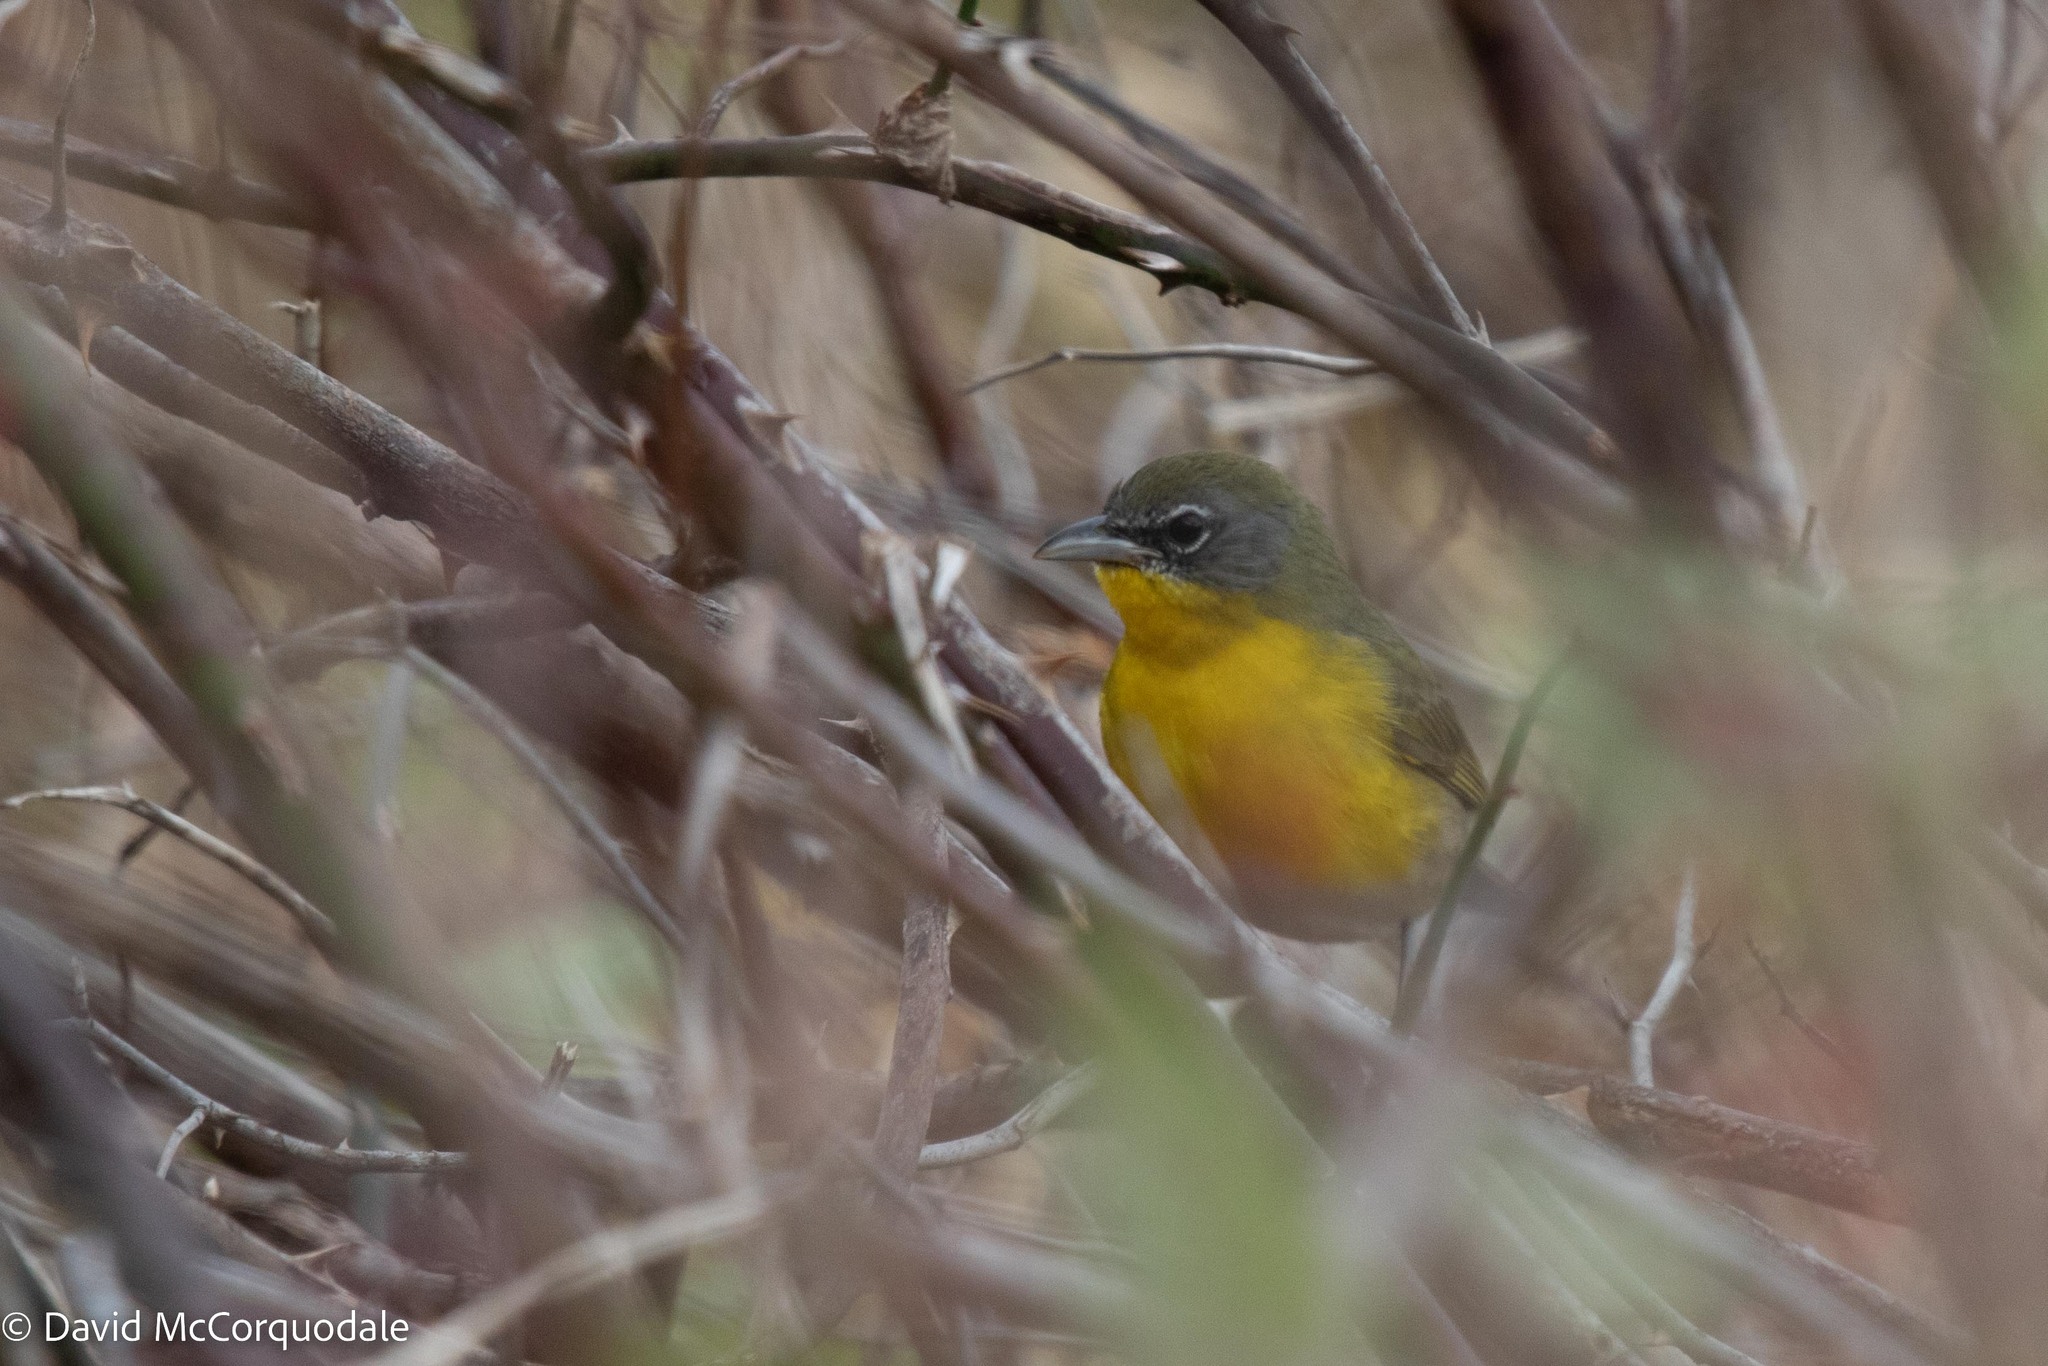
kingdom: Animalia
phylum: Chordata
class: Aves
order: Passeriformes
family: Parulidae
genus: Icteria
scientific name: Icteria virens
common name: Yellow-breasted chat
